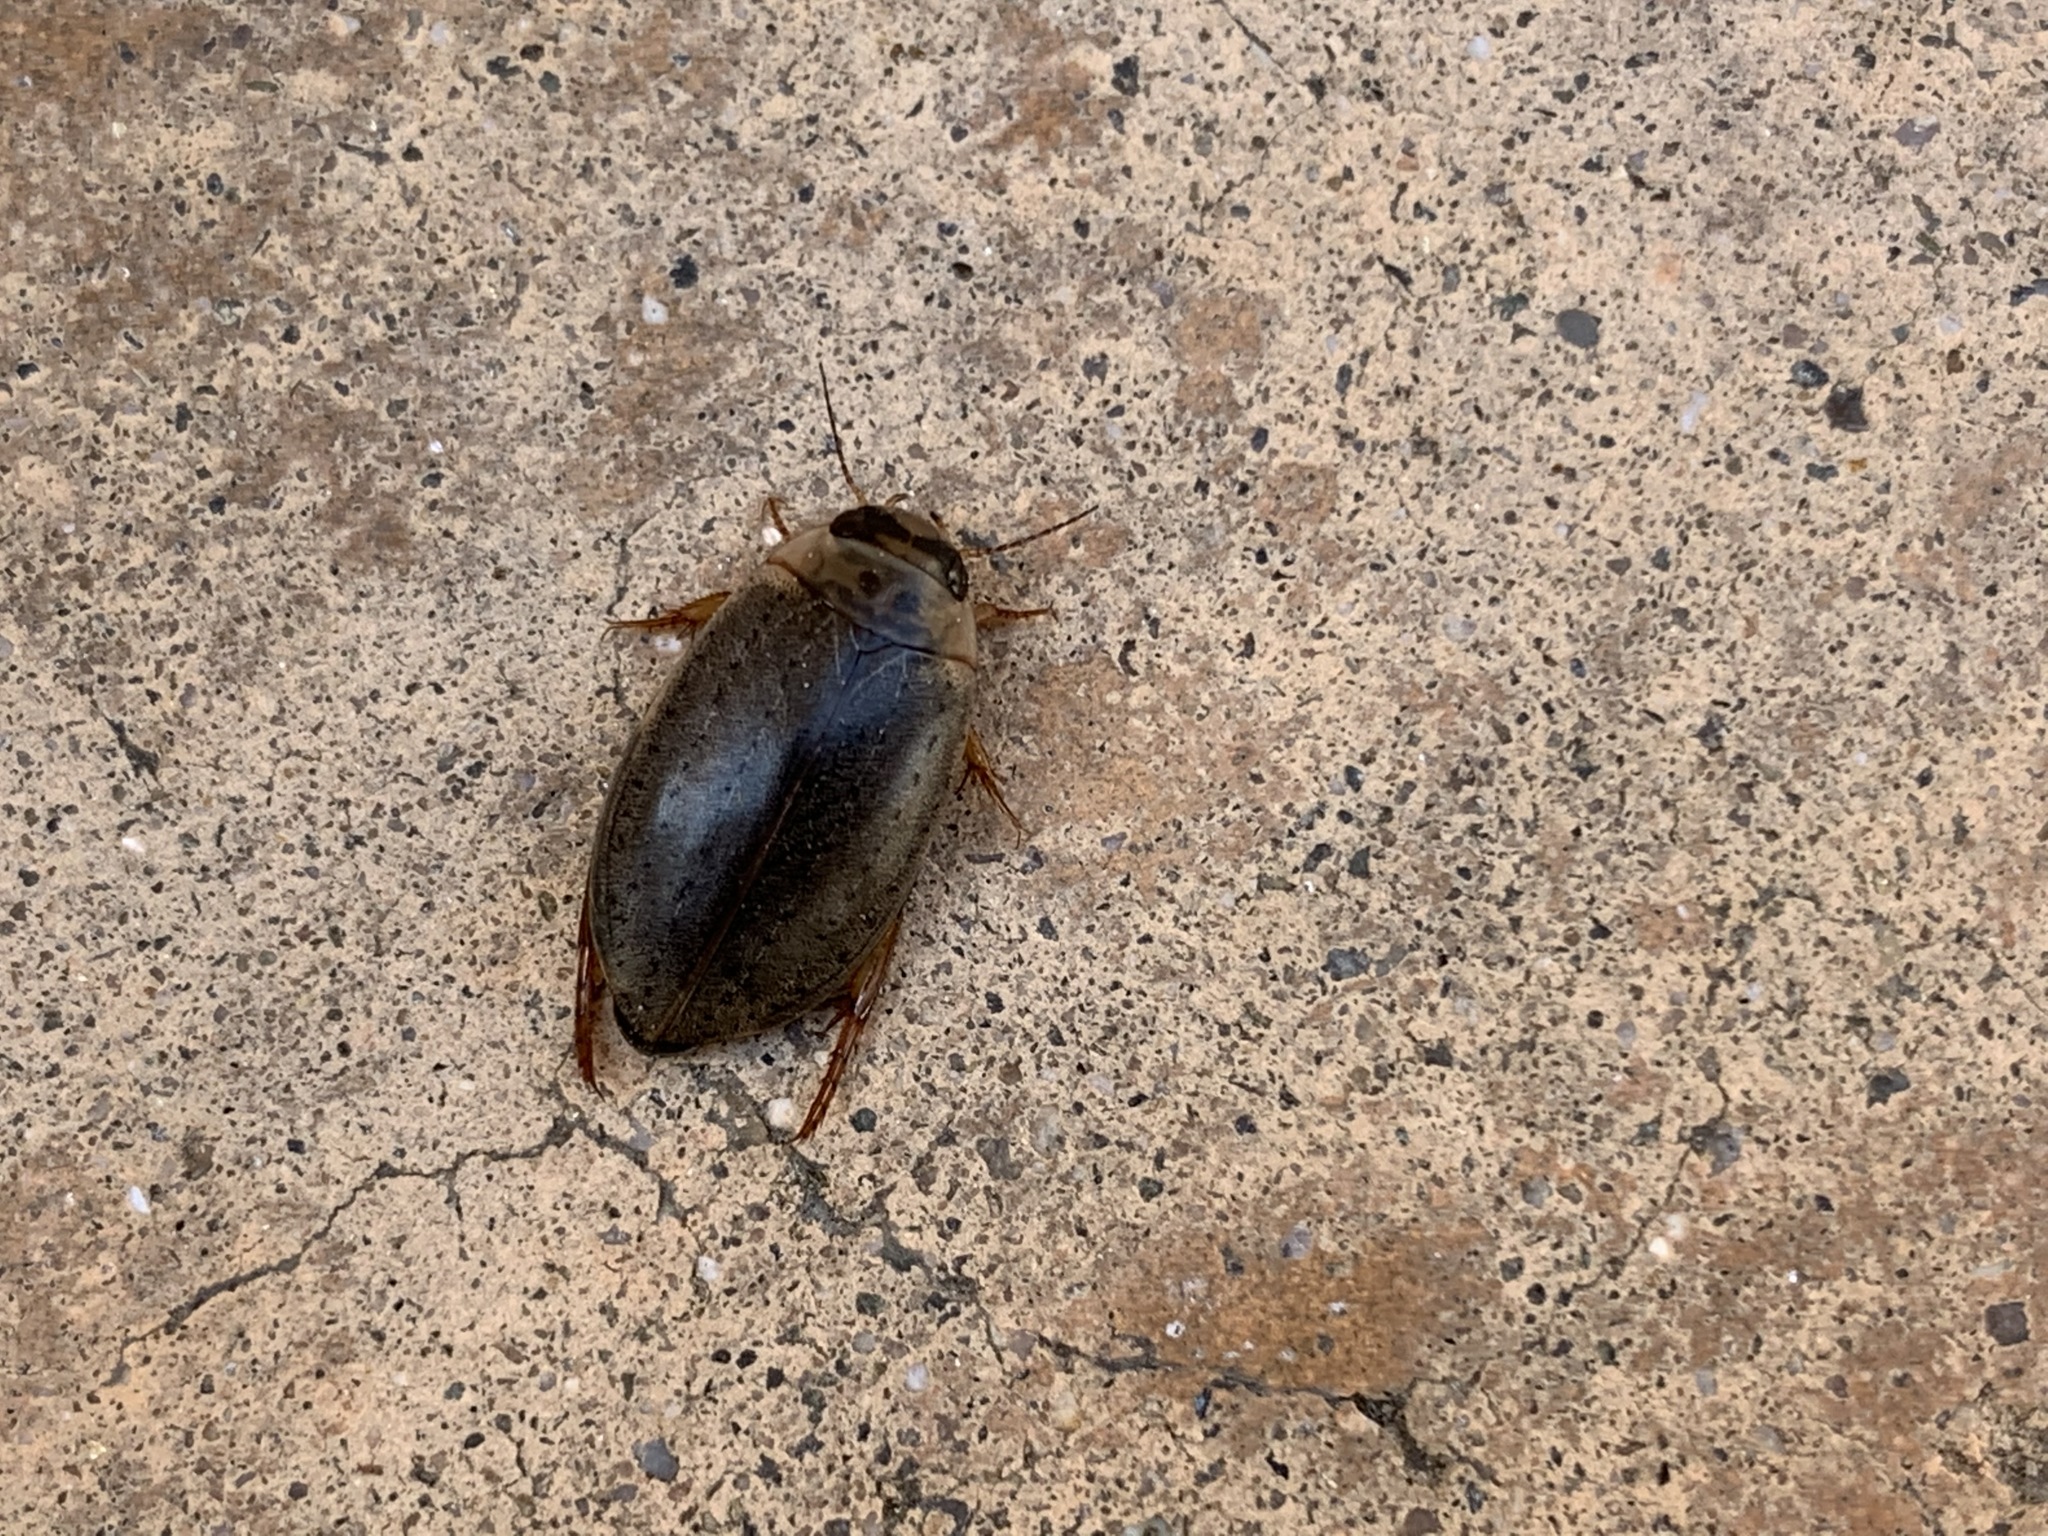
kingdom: Animalia
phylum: Arthropoda
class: Insecta
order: Coleoptera
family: Dytiscidae
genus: Rhantus
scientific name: Rhantus gutticollis
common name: Predaceous diving beetle
